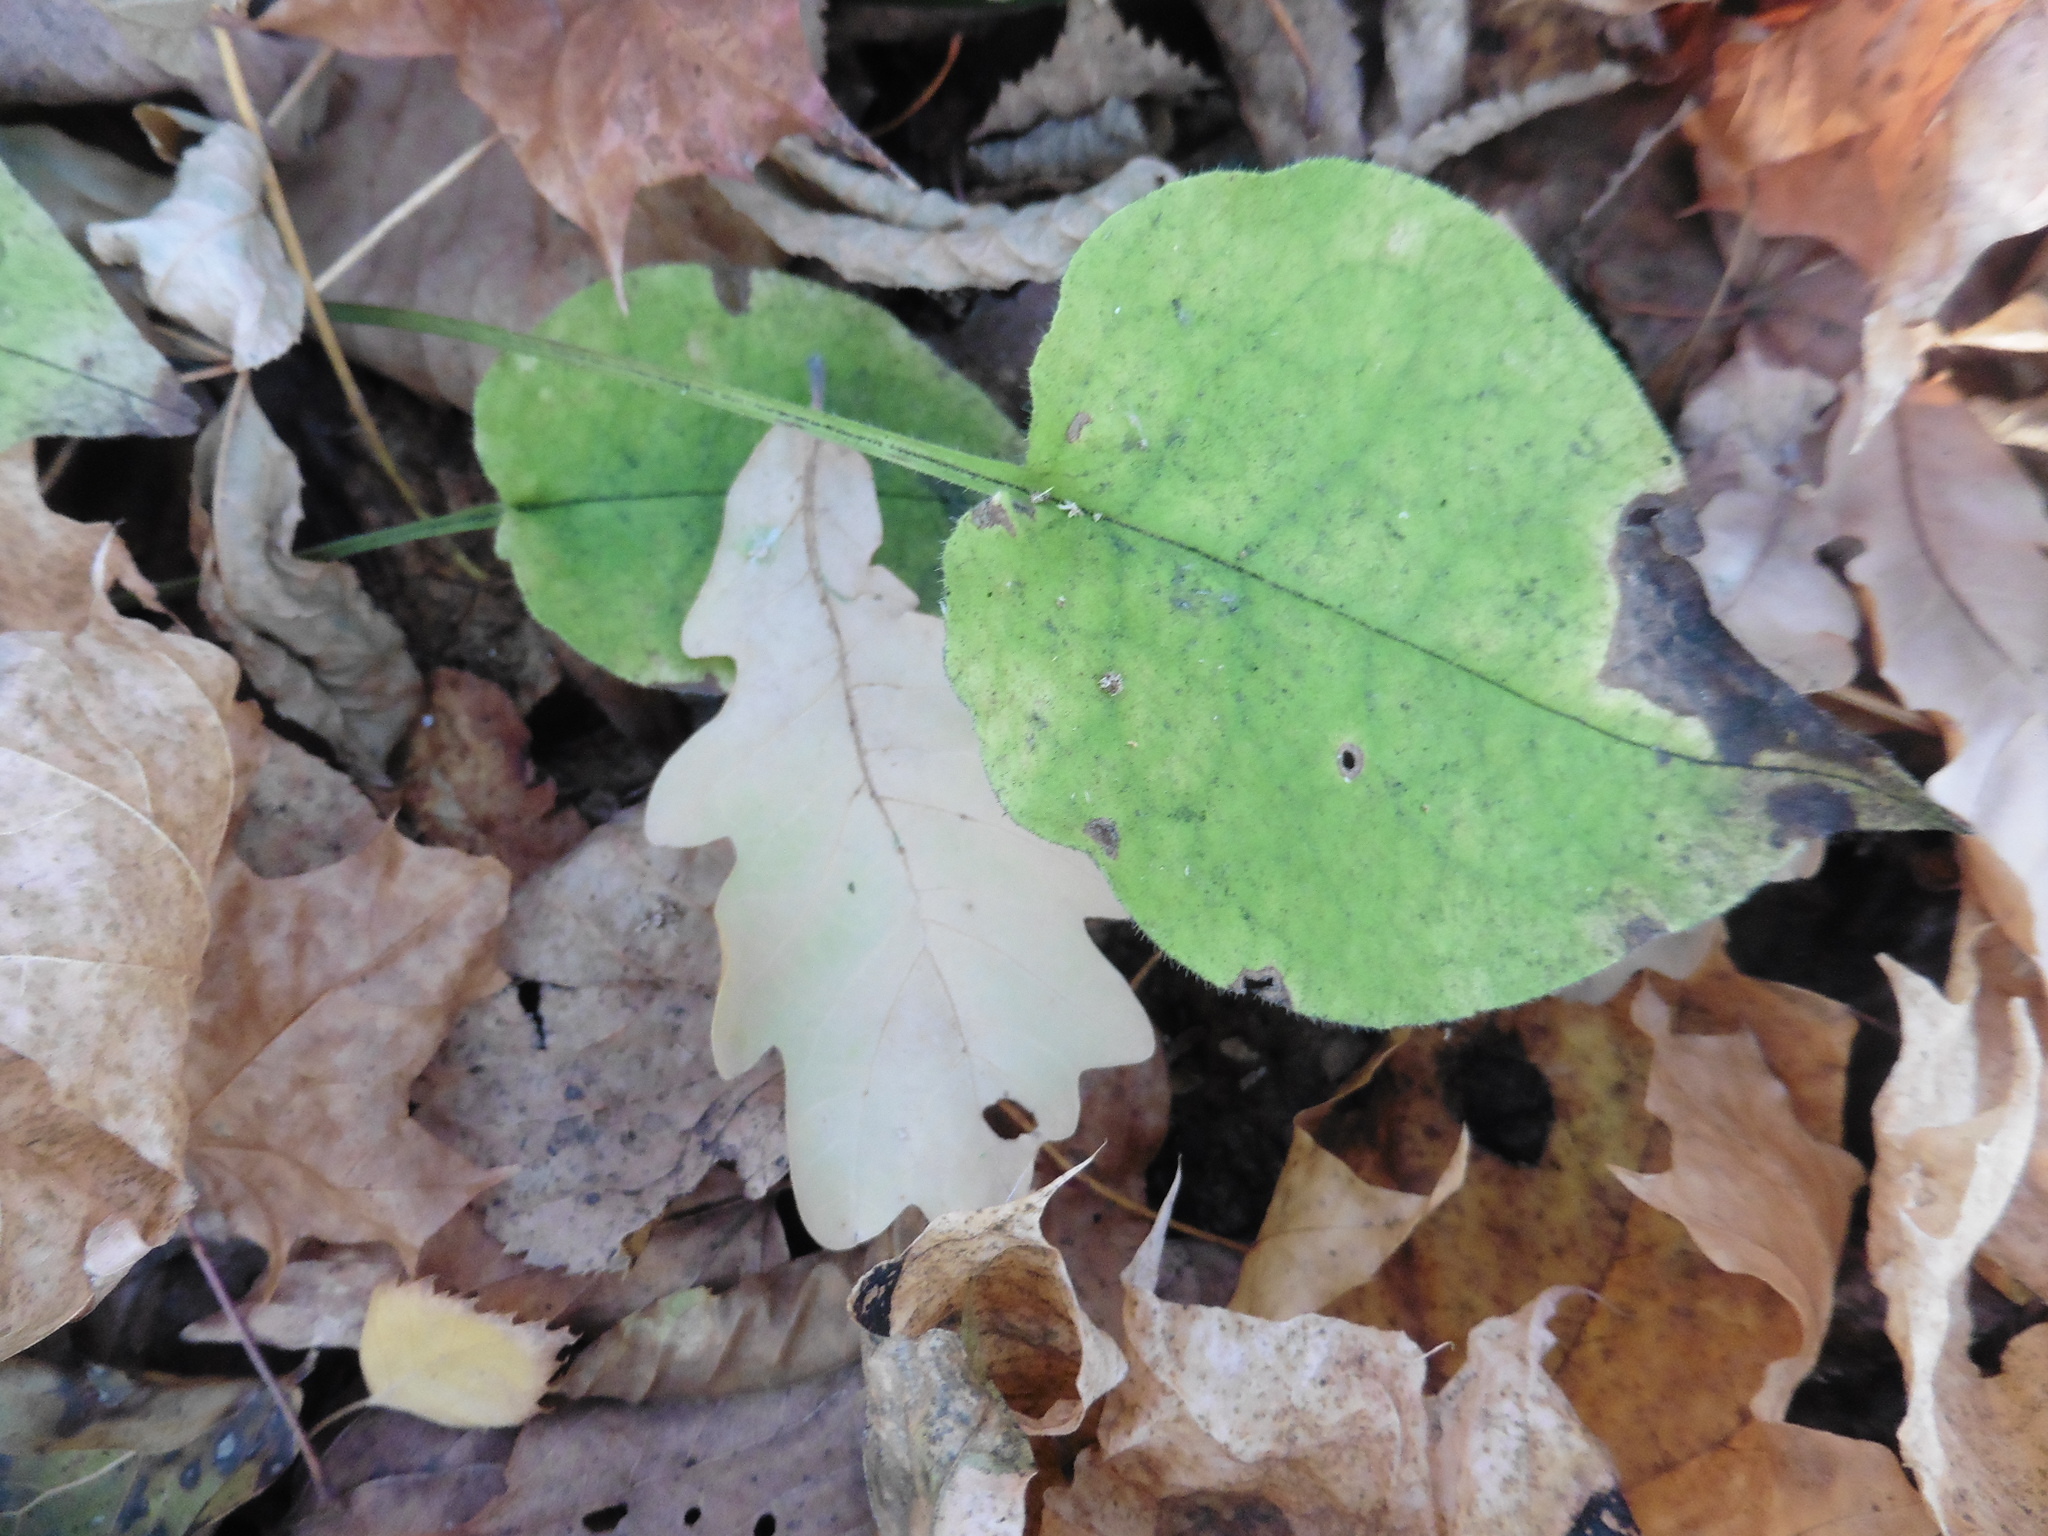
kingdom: Plantae
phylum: Tracheophyta
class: Magnoliopsida
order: Boraginales
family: Boraginaceae
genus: Pulmonaria
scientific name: Pulmonaria obscura
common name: Suffolk lungwort
